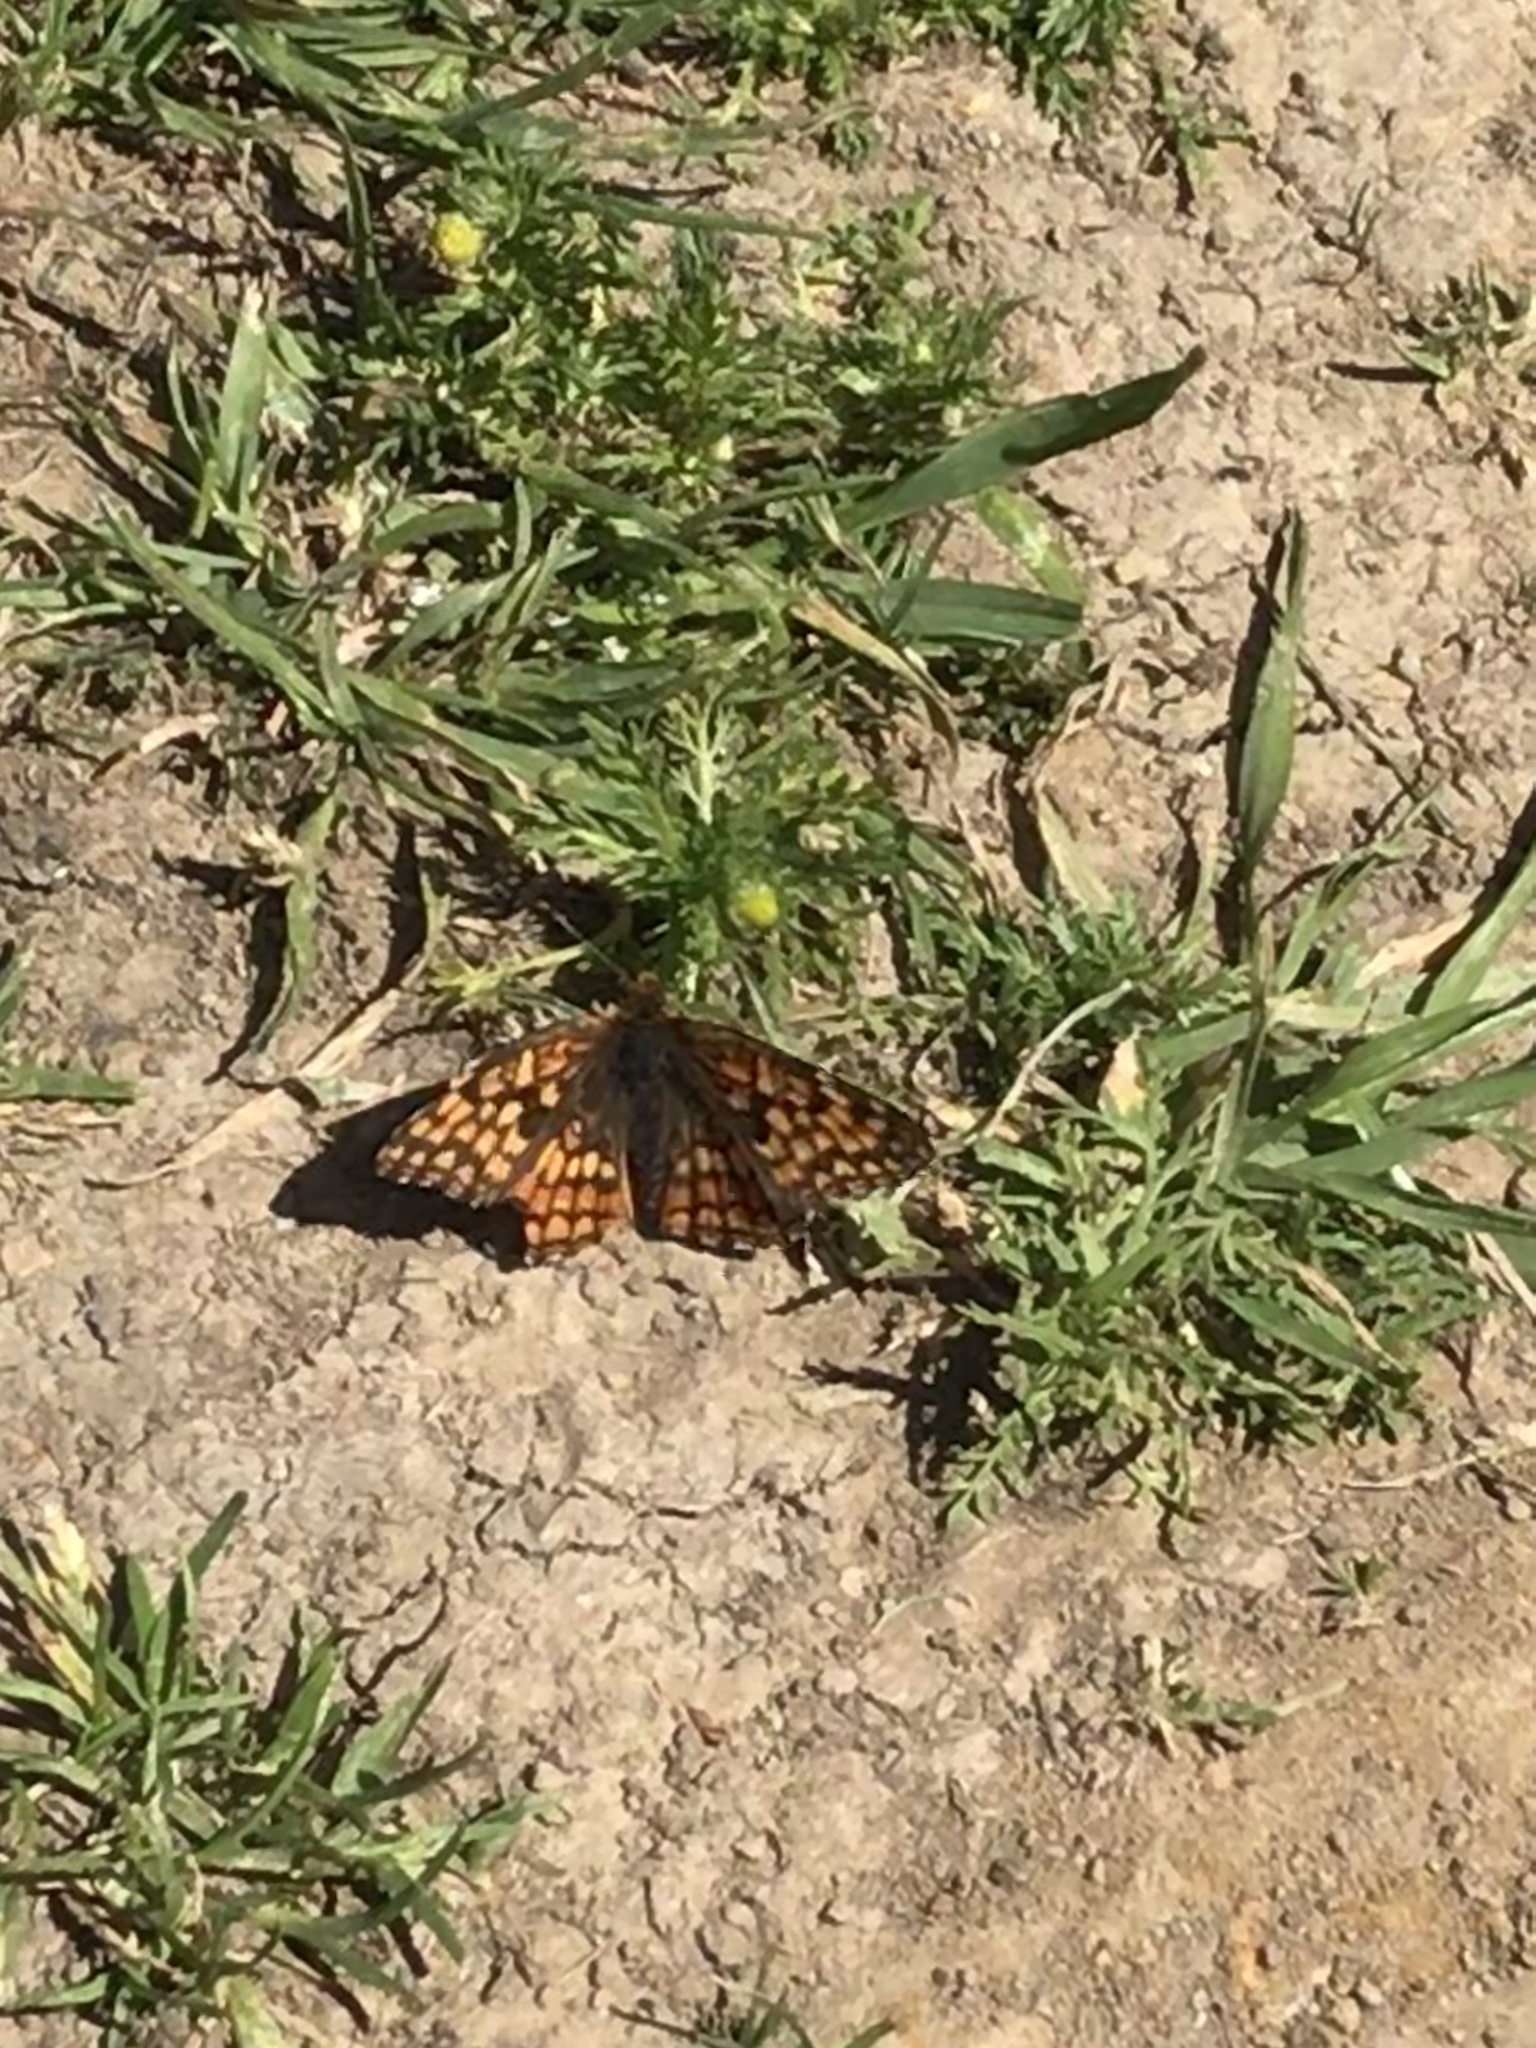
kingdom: Animalia
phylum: Arthropoda
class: Insecta
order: Lepidoptera
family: Nymphalidae
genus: Chlosyne
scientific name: Chlosyne palla
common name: Northern checkerspot
